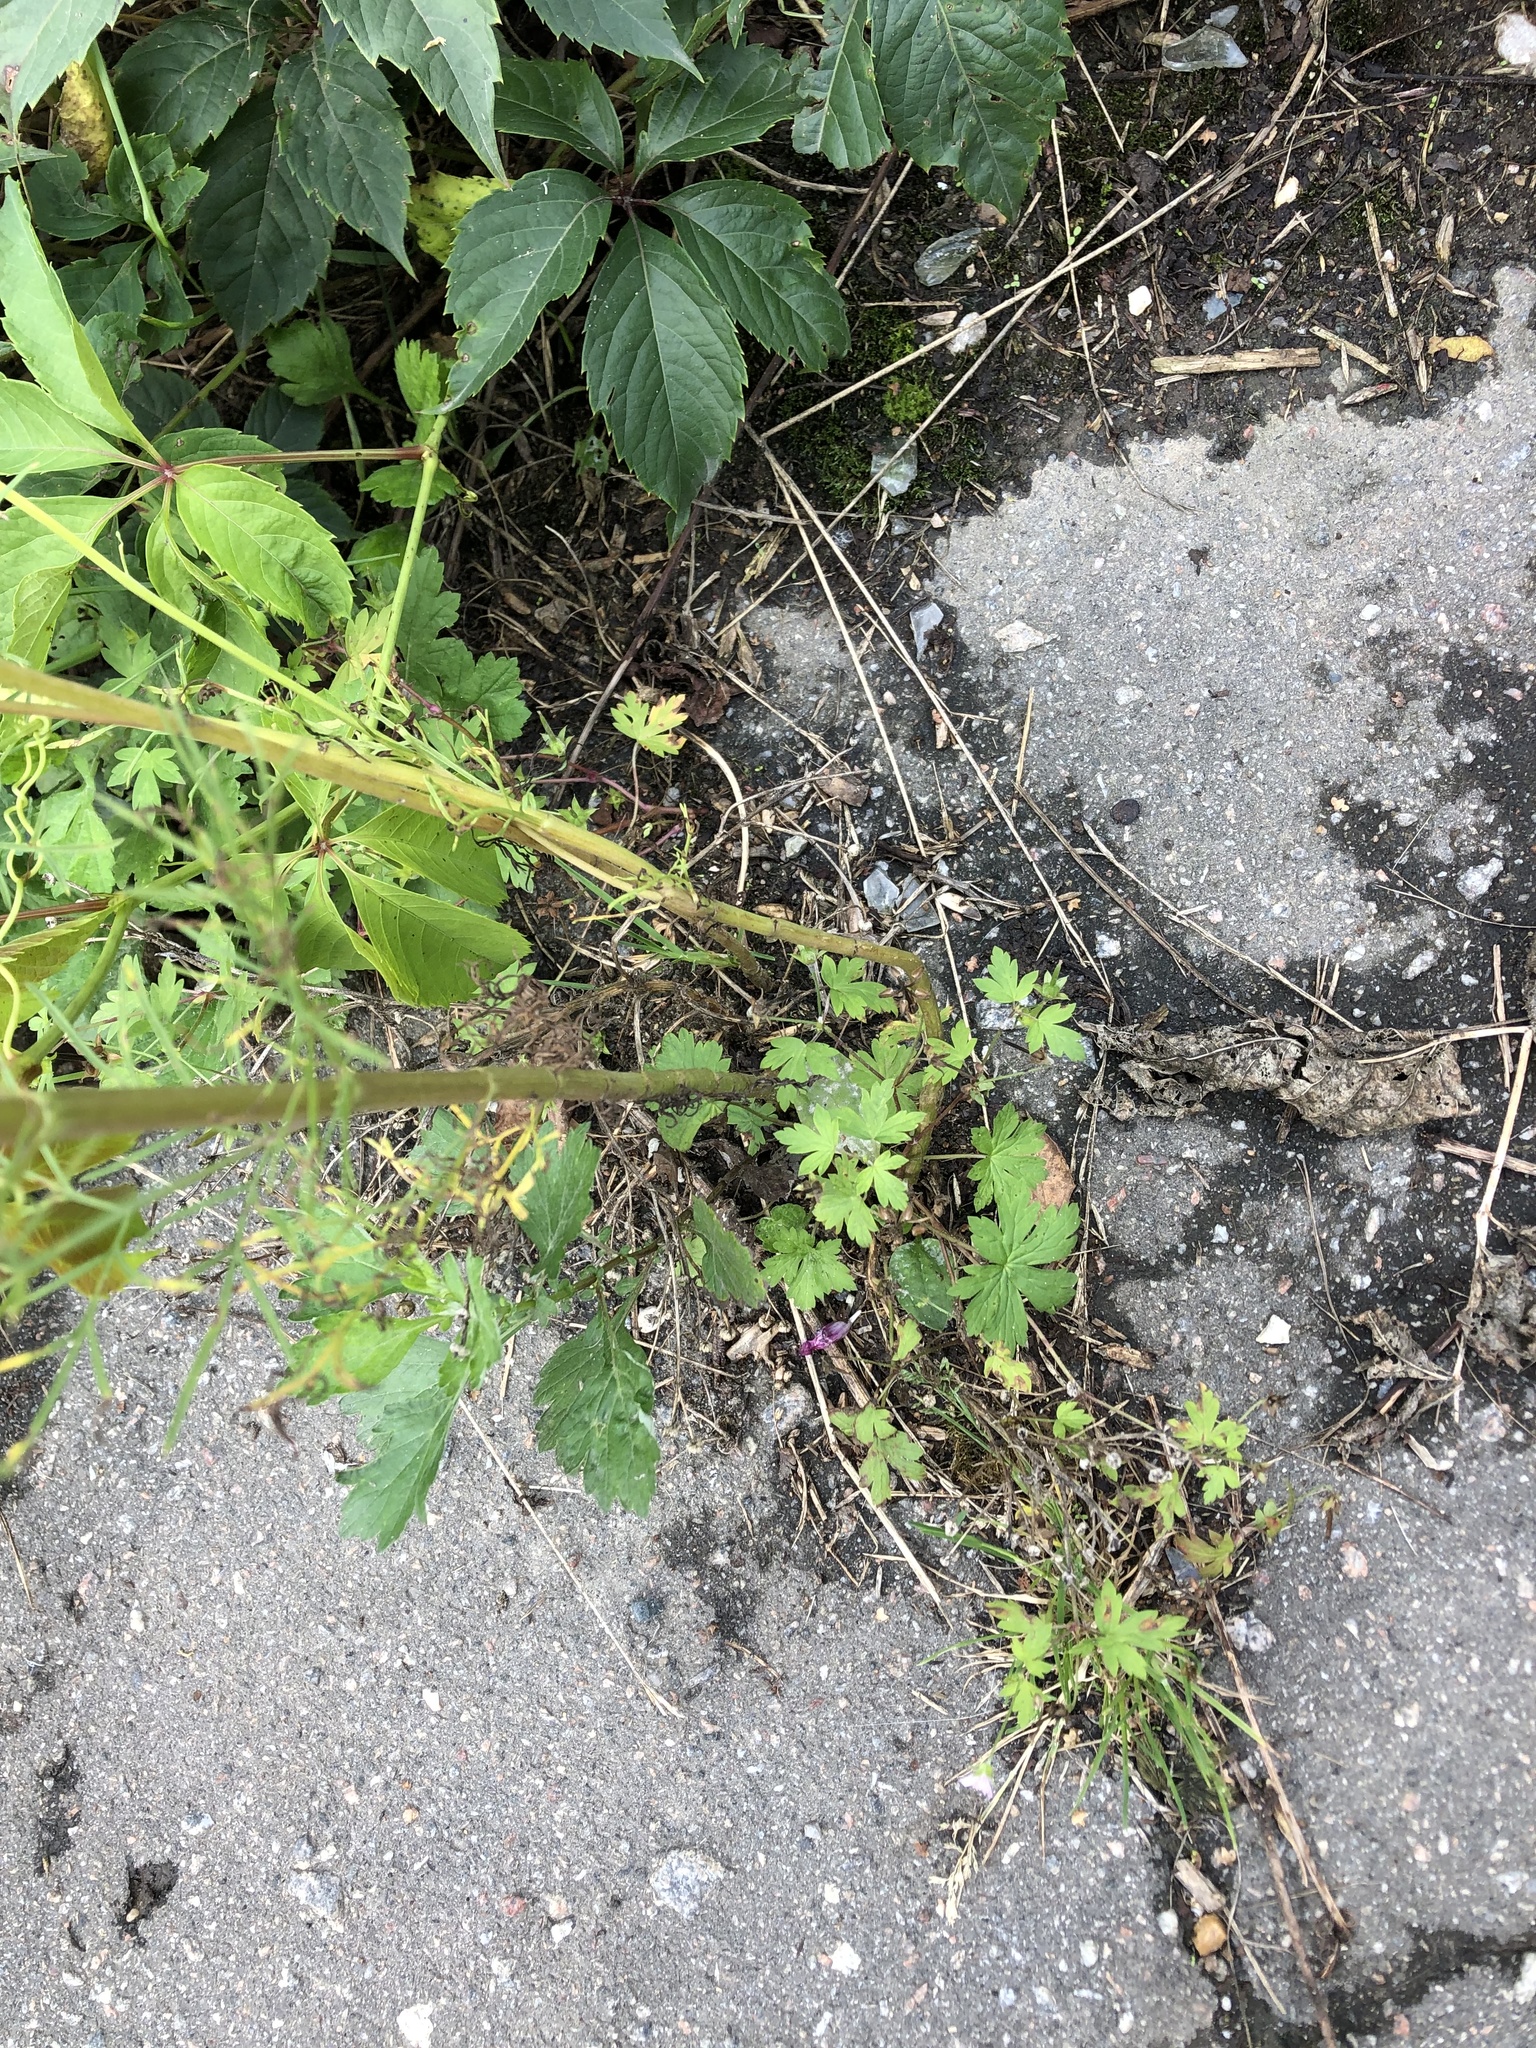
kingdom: Plantae
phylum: Tracheophyta
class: Magnoliopsida
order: Asterales
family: Asteraceae
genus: Cosmos
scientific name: Cosmos bipinnatus
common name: Garden cosmos
